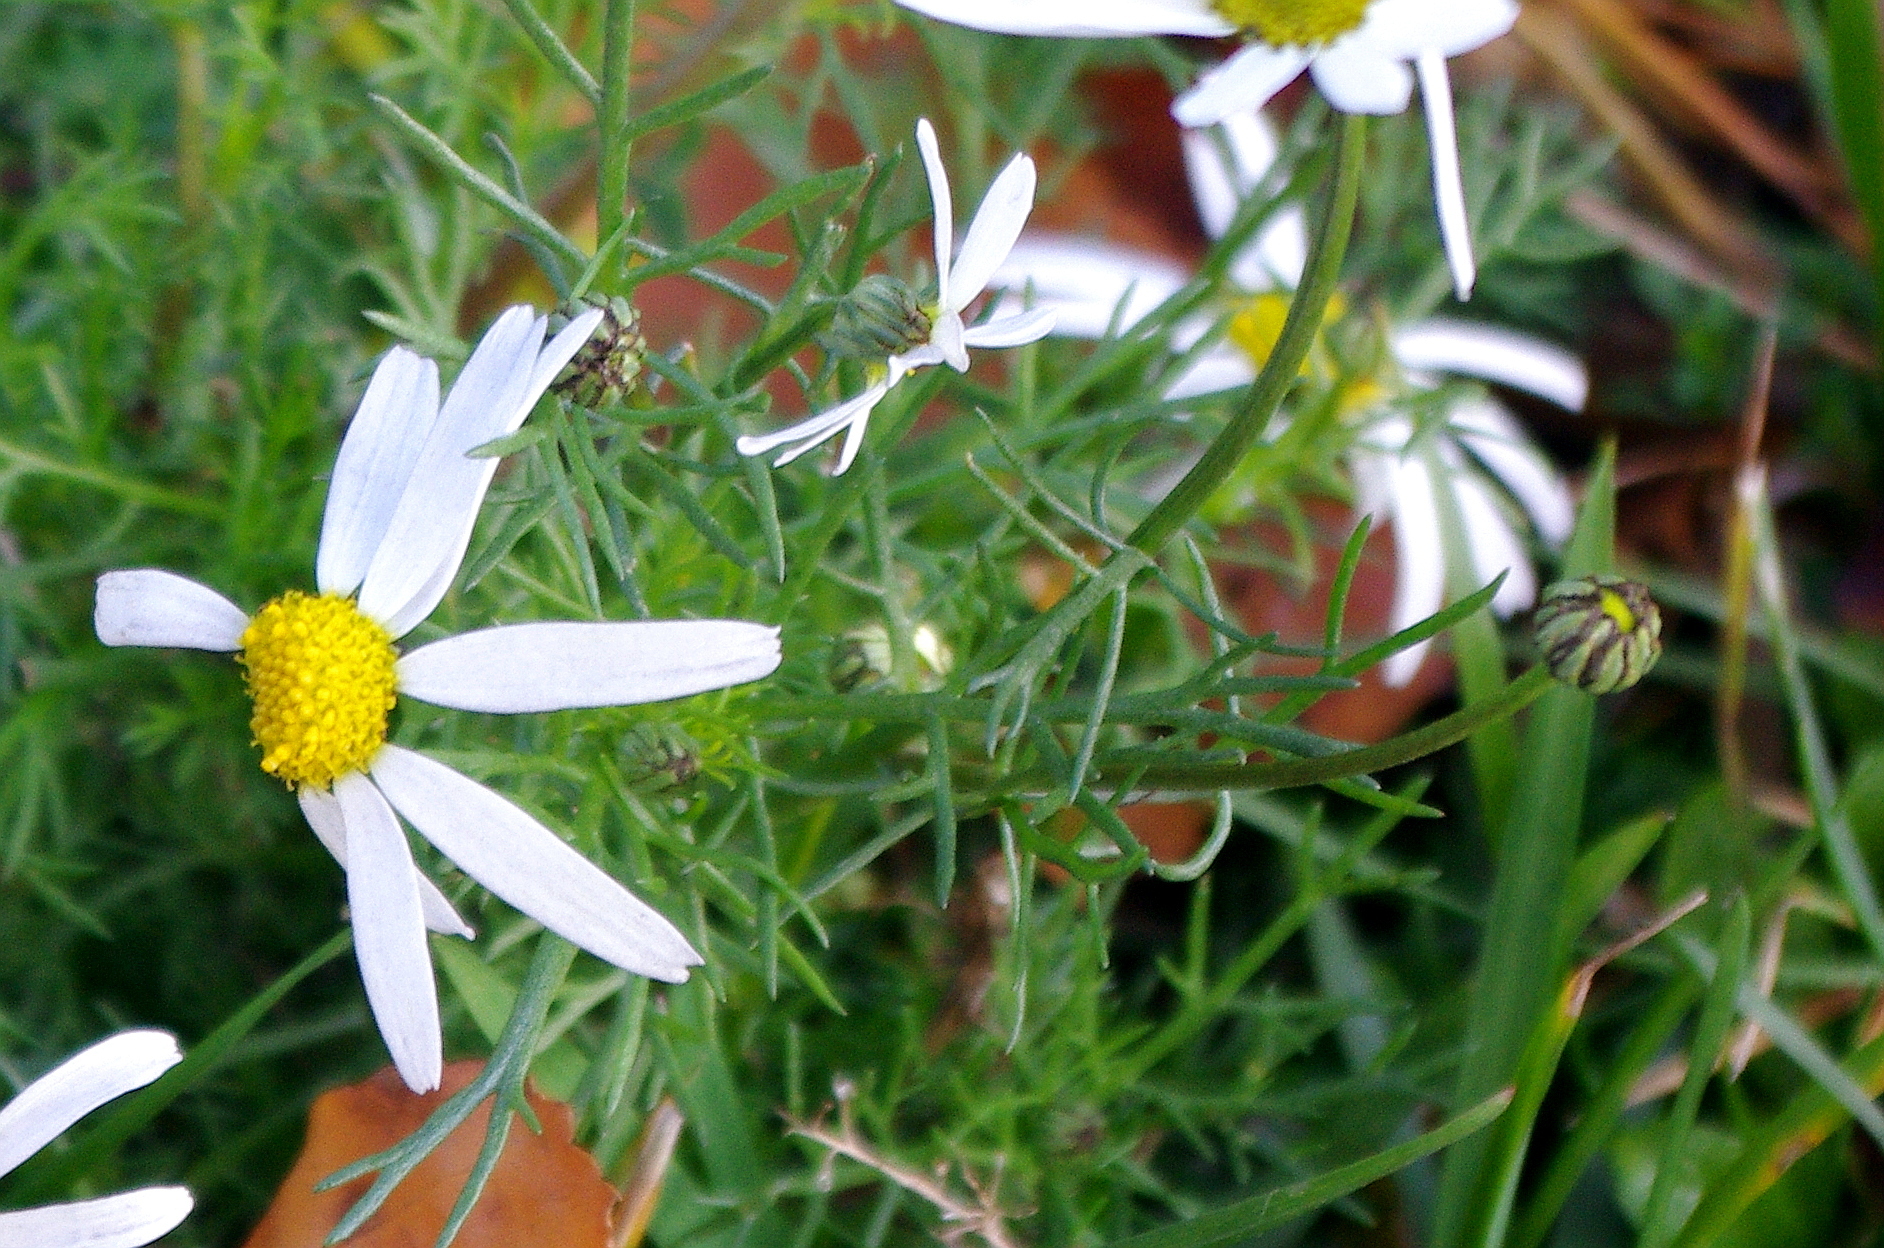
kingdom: Plantae
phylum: Tracheophyta
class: Magnoliopsida
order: Asterales
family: Asteraceae
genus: Tripleurospermum
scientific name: Tripleurospermum inodorum
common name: Scentless mayweed
